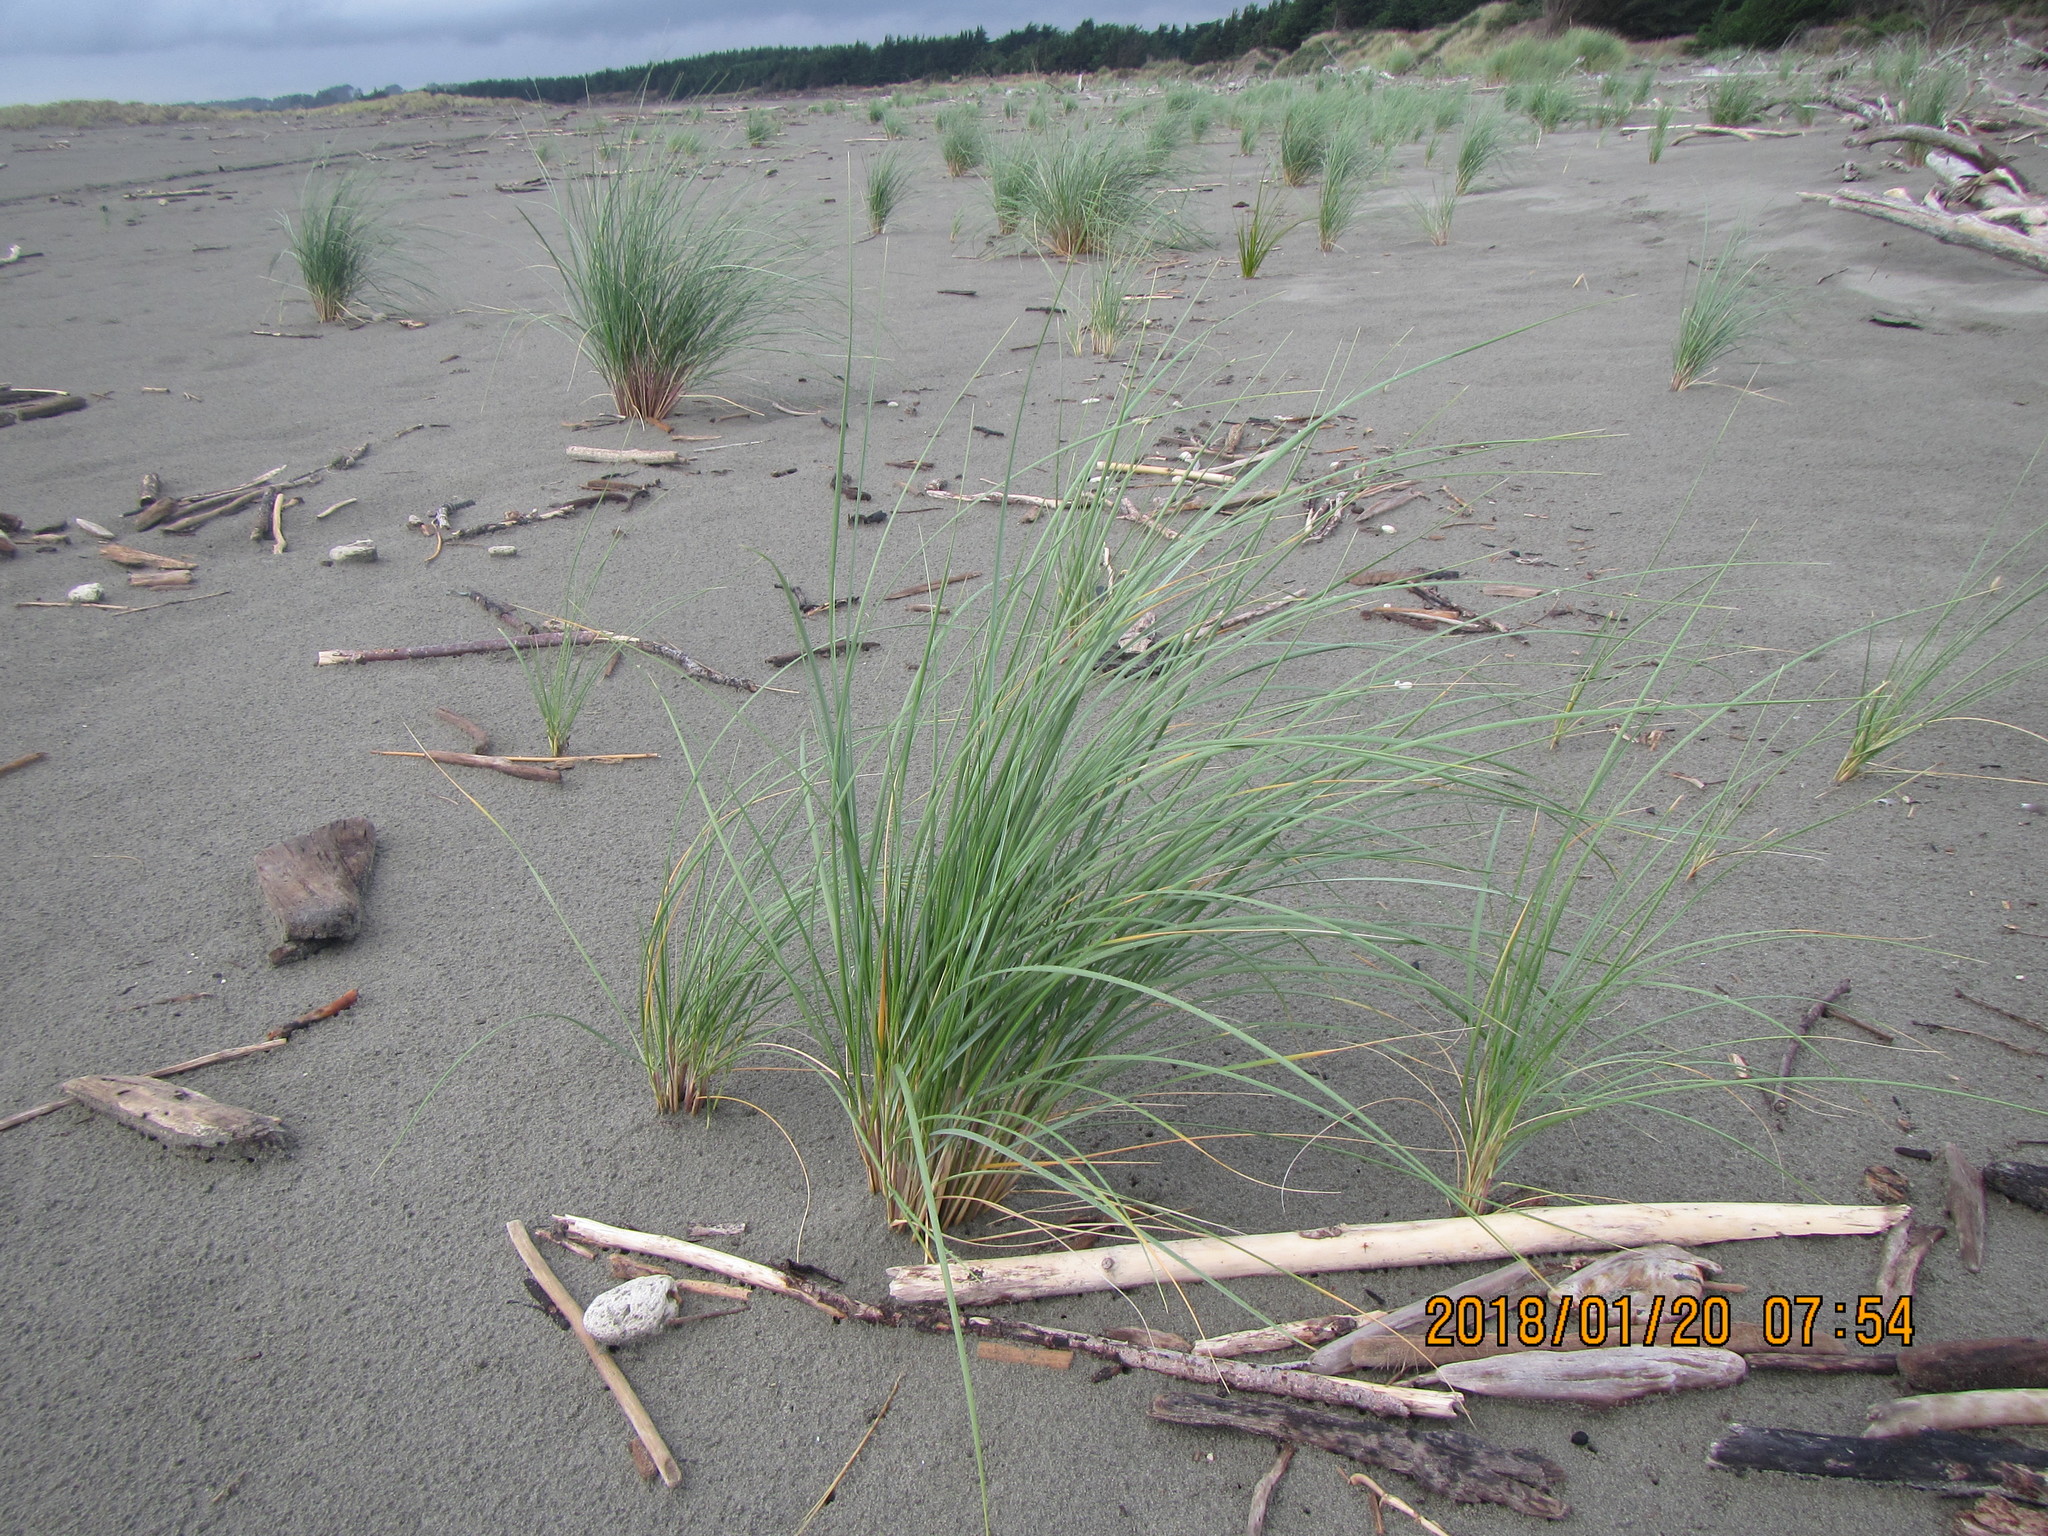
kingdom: Plantae
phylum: Tracheophyta
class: Liliopsida
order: Poales
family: Poaceae
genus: Calamagrostis
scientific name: Calamagrostis arenaria
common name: European beachgrass
